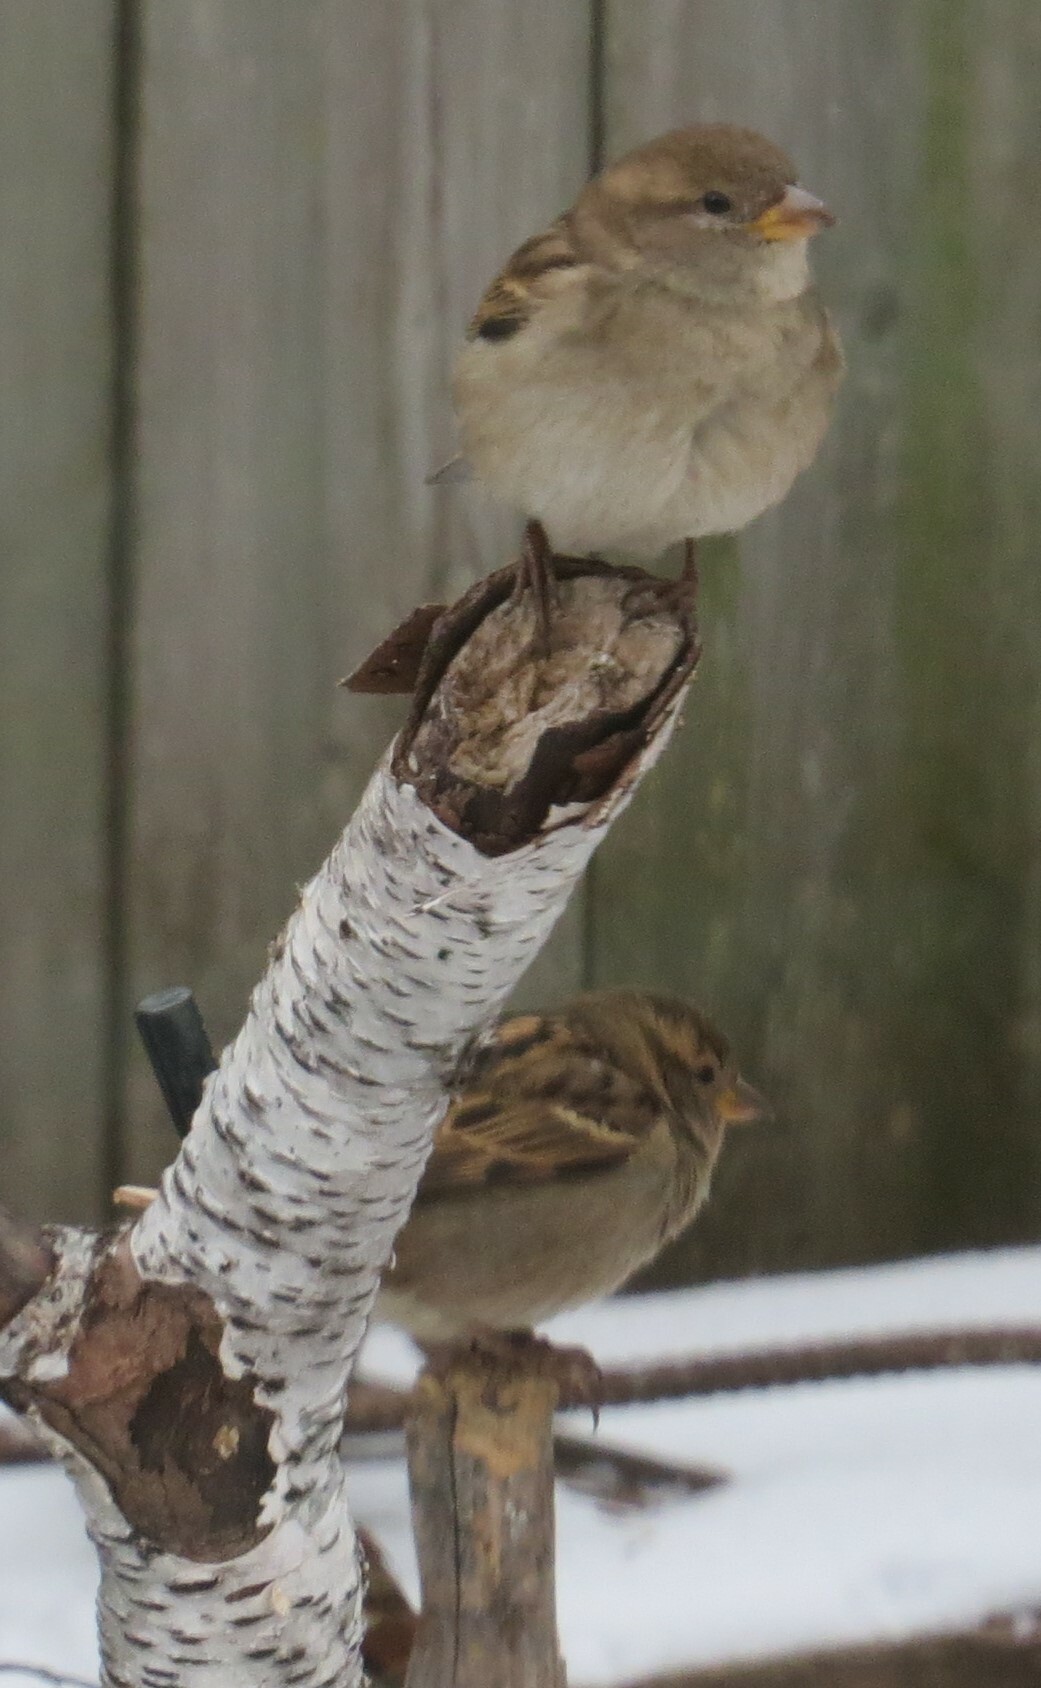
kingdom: Animalia
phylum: Chordata
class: Aves
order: Passeriformes
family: Passeridae
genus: Passer
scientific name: Passer domesticus
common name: House sparrow
